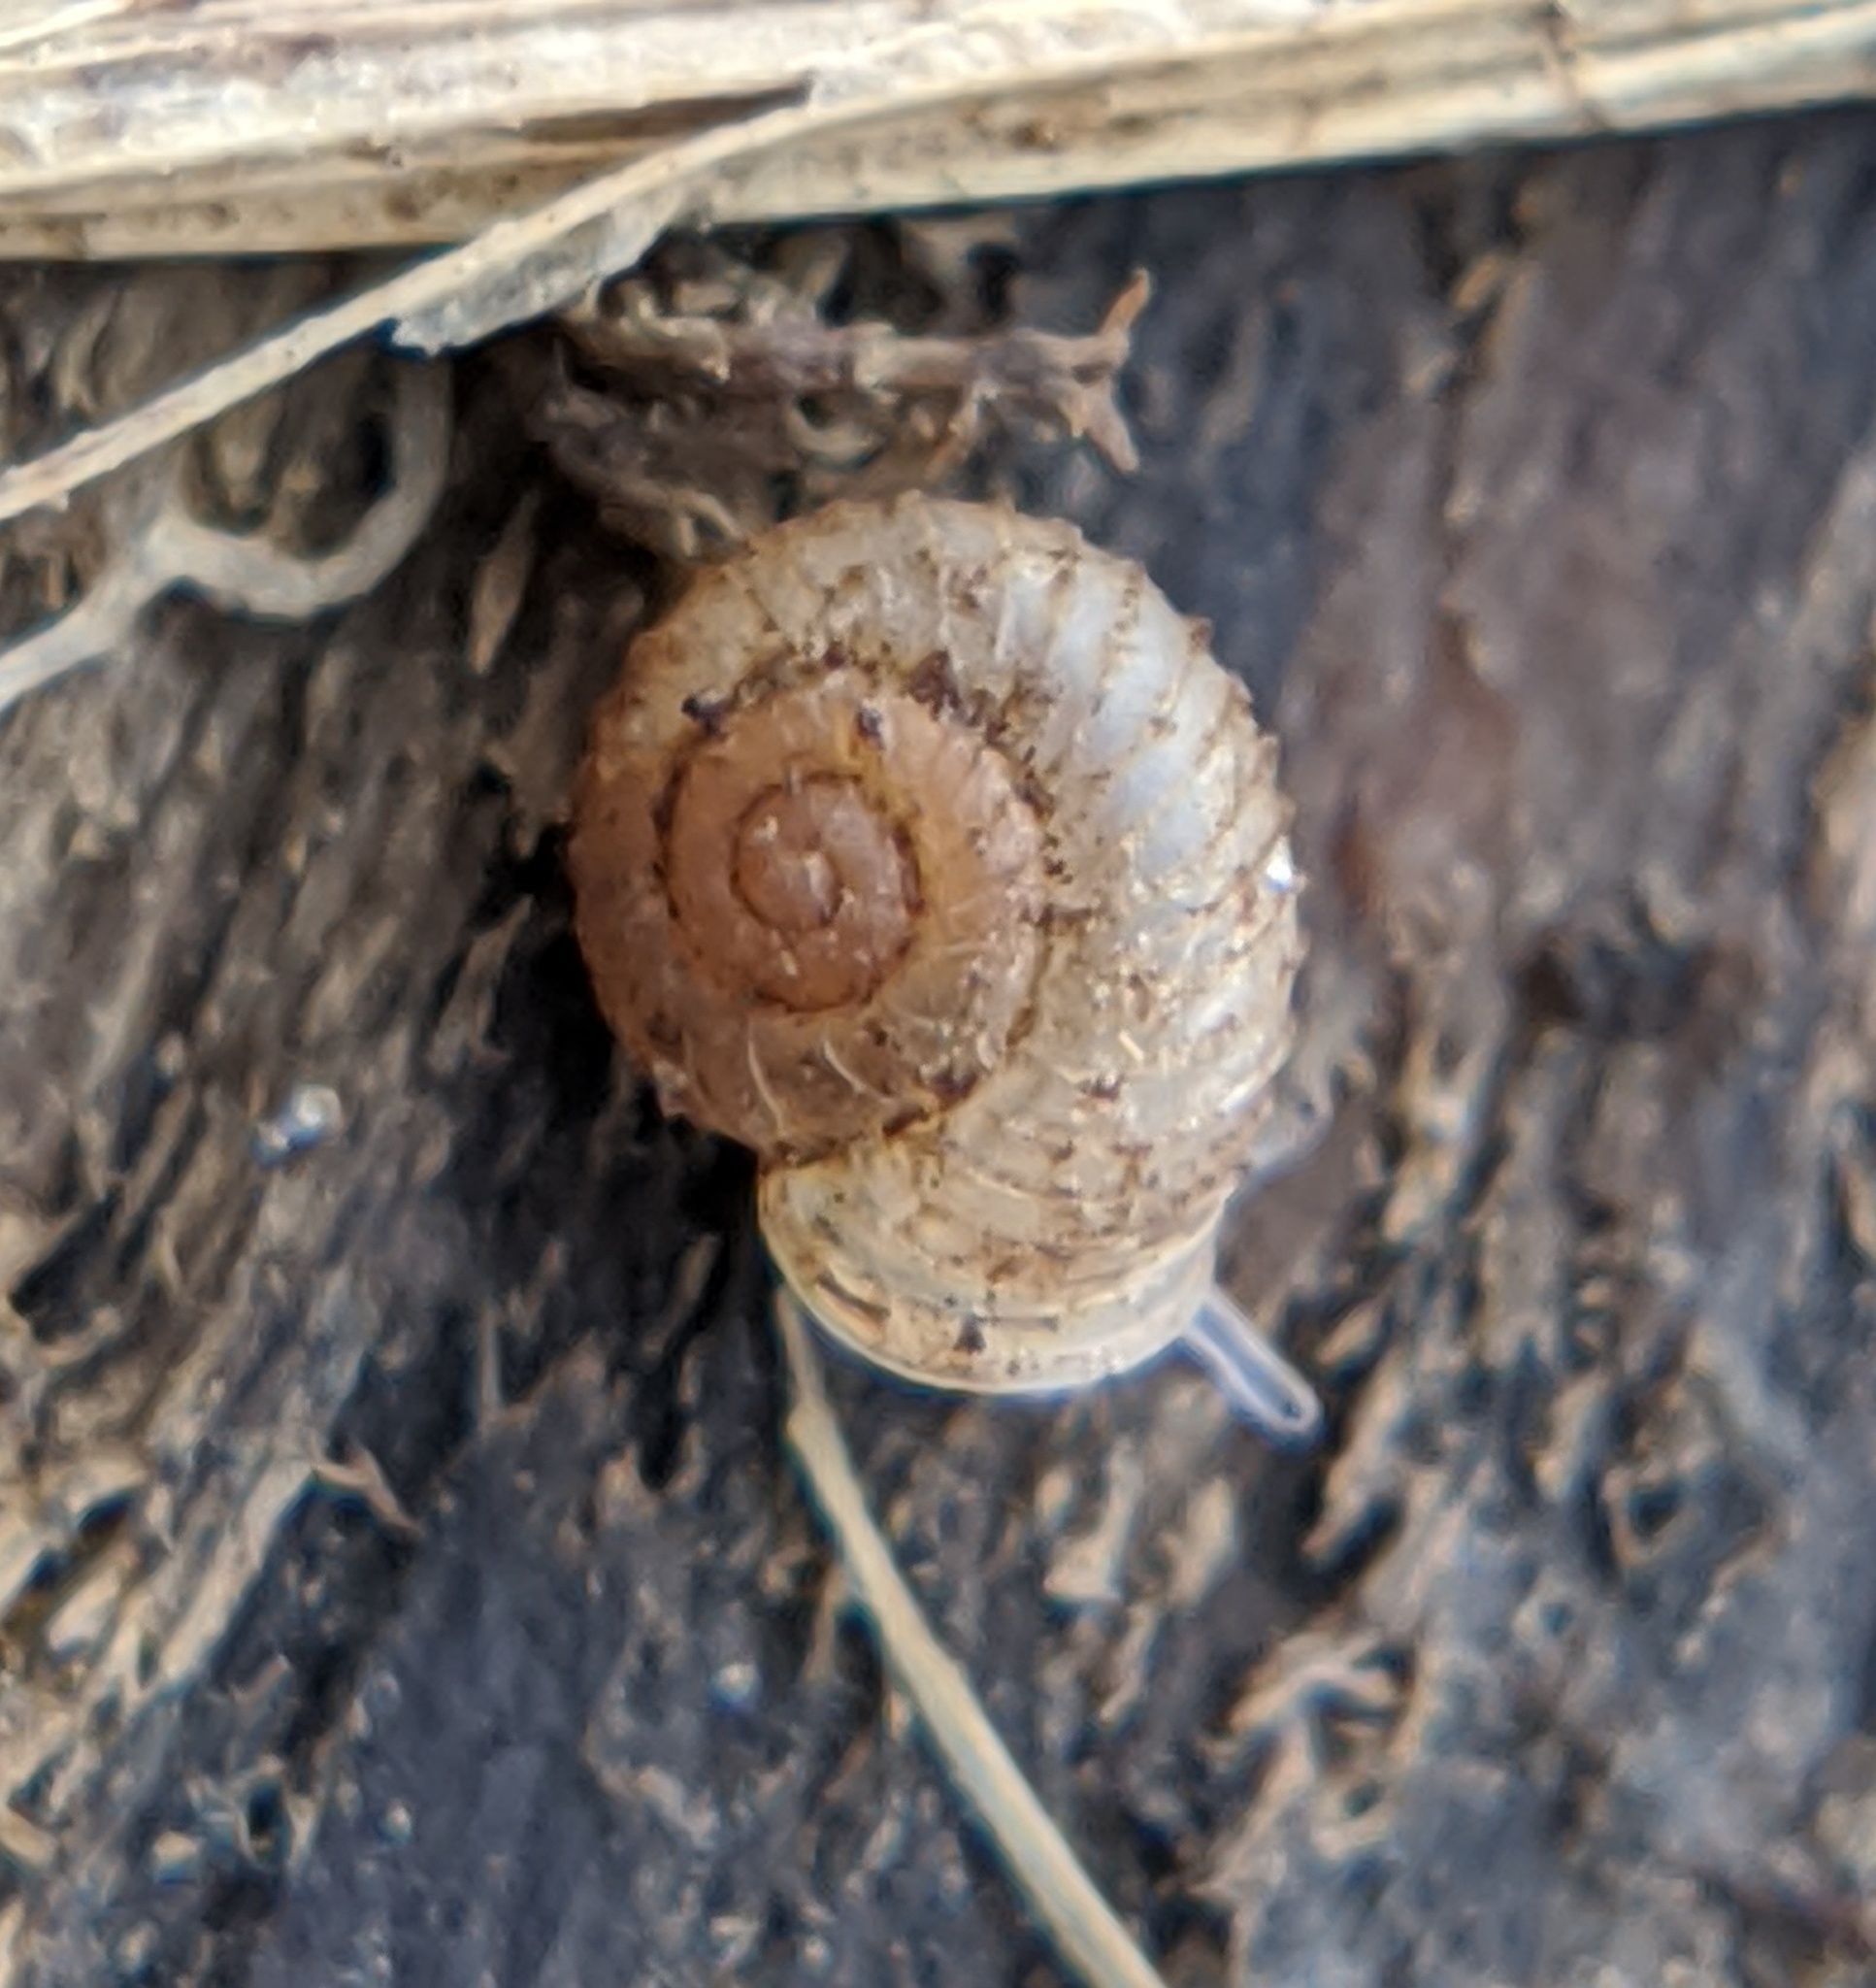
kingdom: Animalia
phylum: Mollusca
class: Gastropoda
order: Stylommatophora
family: Valloniidae
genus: Vallonia
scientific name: Vallonia costata
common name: Ribbed grass snail
